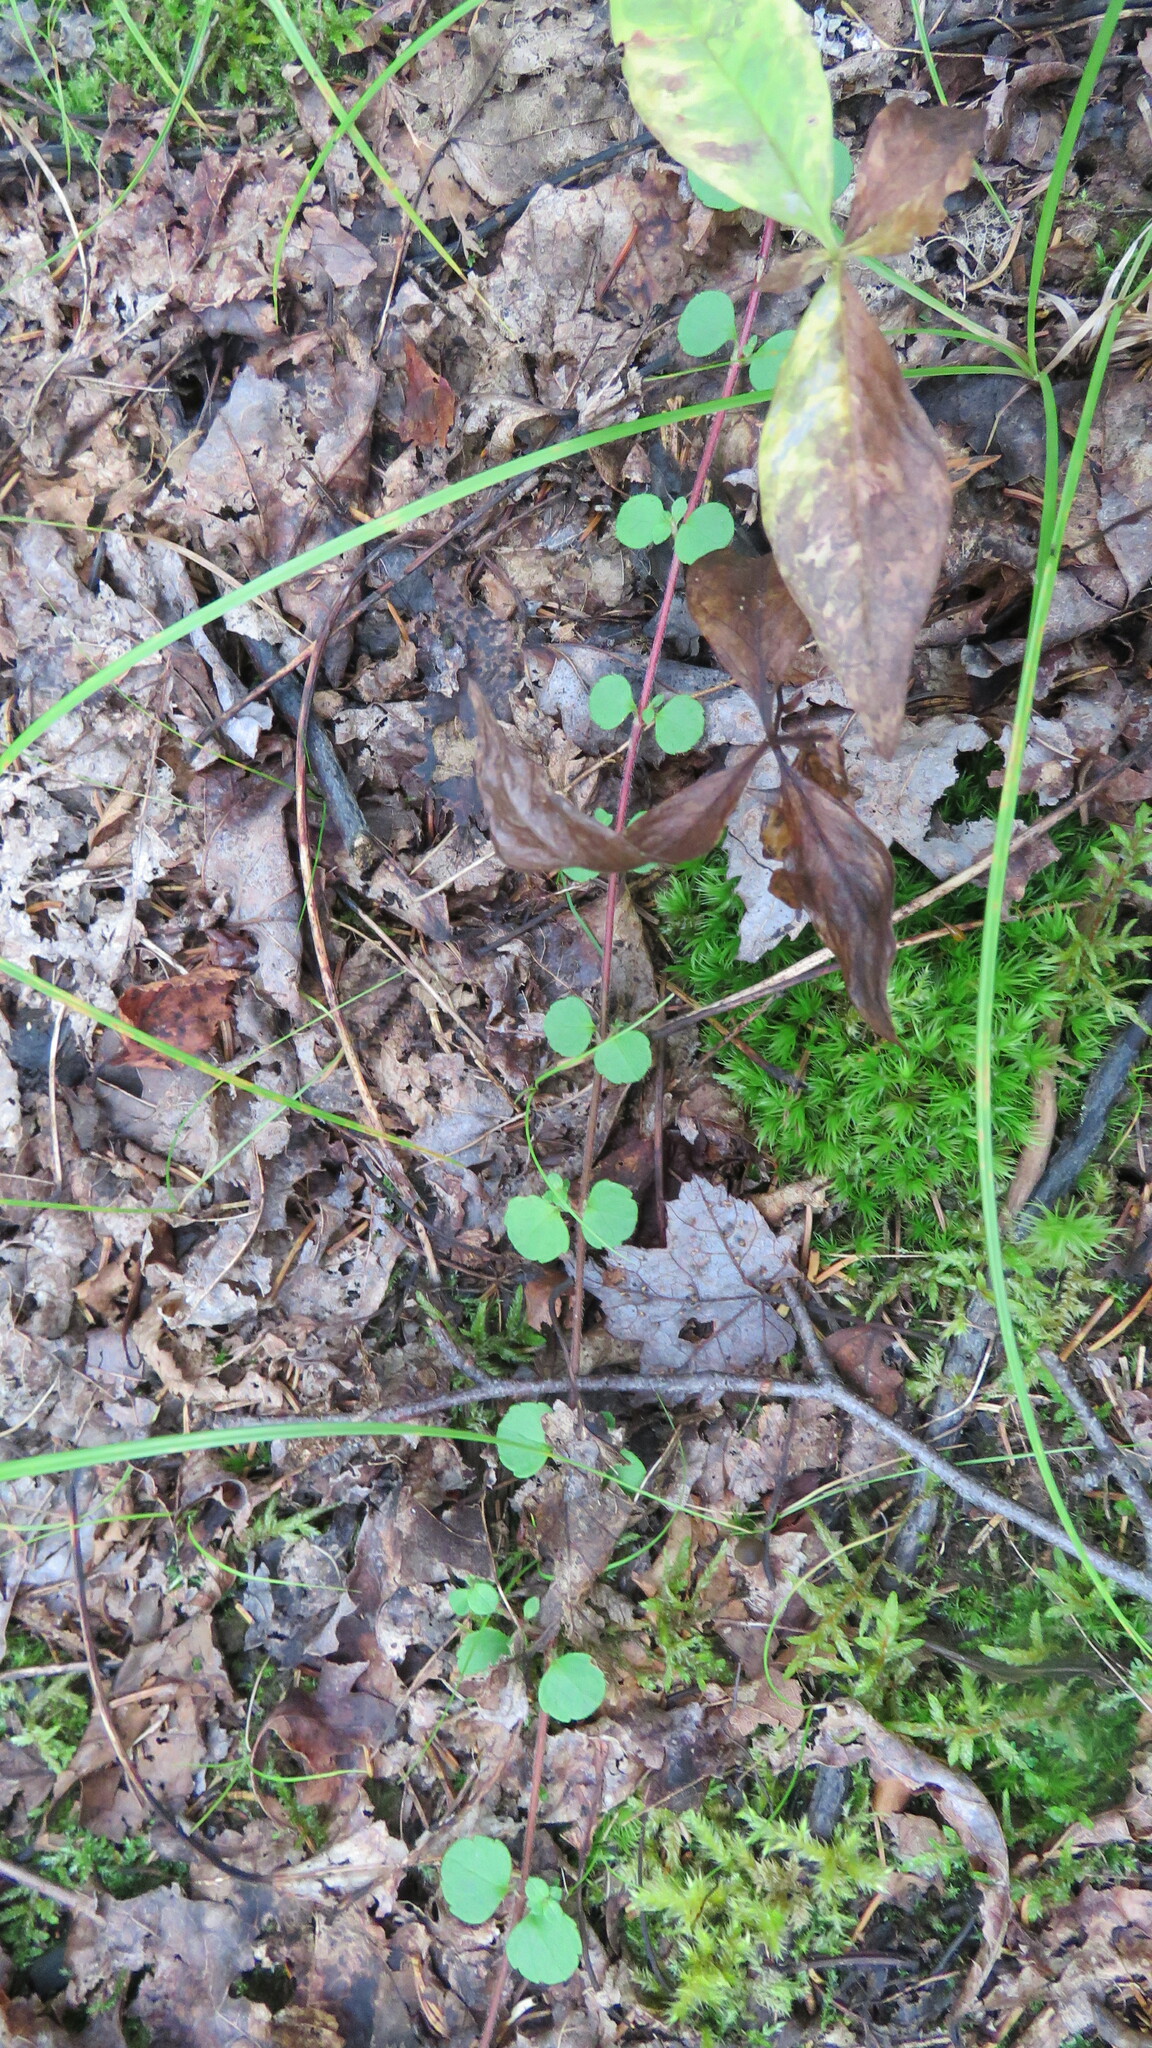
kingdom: Plantae
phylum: Tracheophyta
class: Magnoliopsida
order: Dipsacales
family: Caprifoliaceae
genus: Linnaea
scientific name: Linnaea borealis
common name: Twinflower
